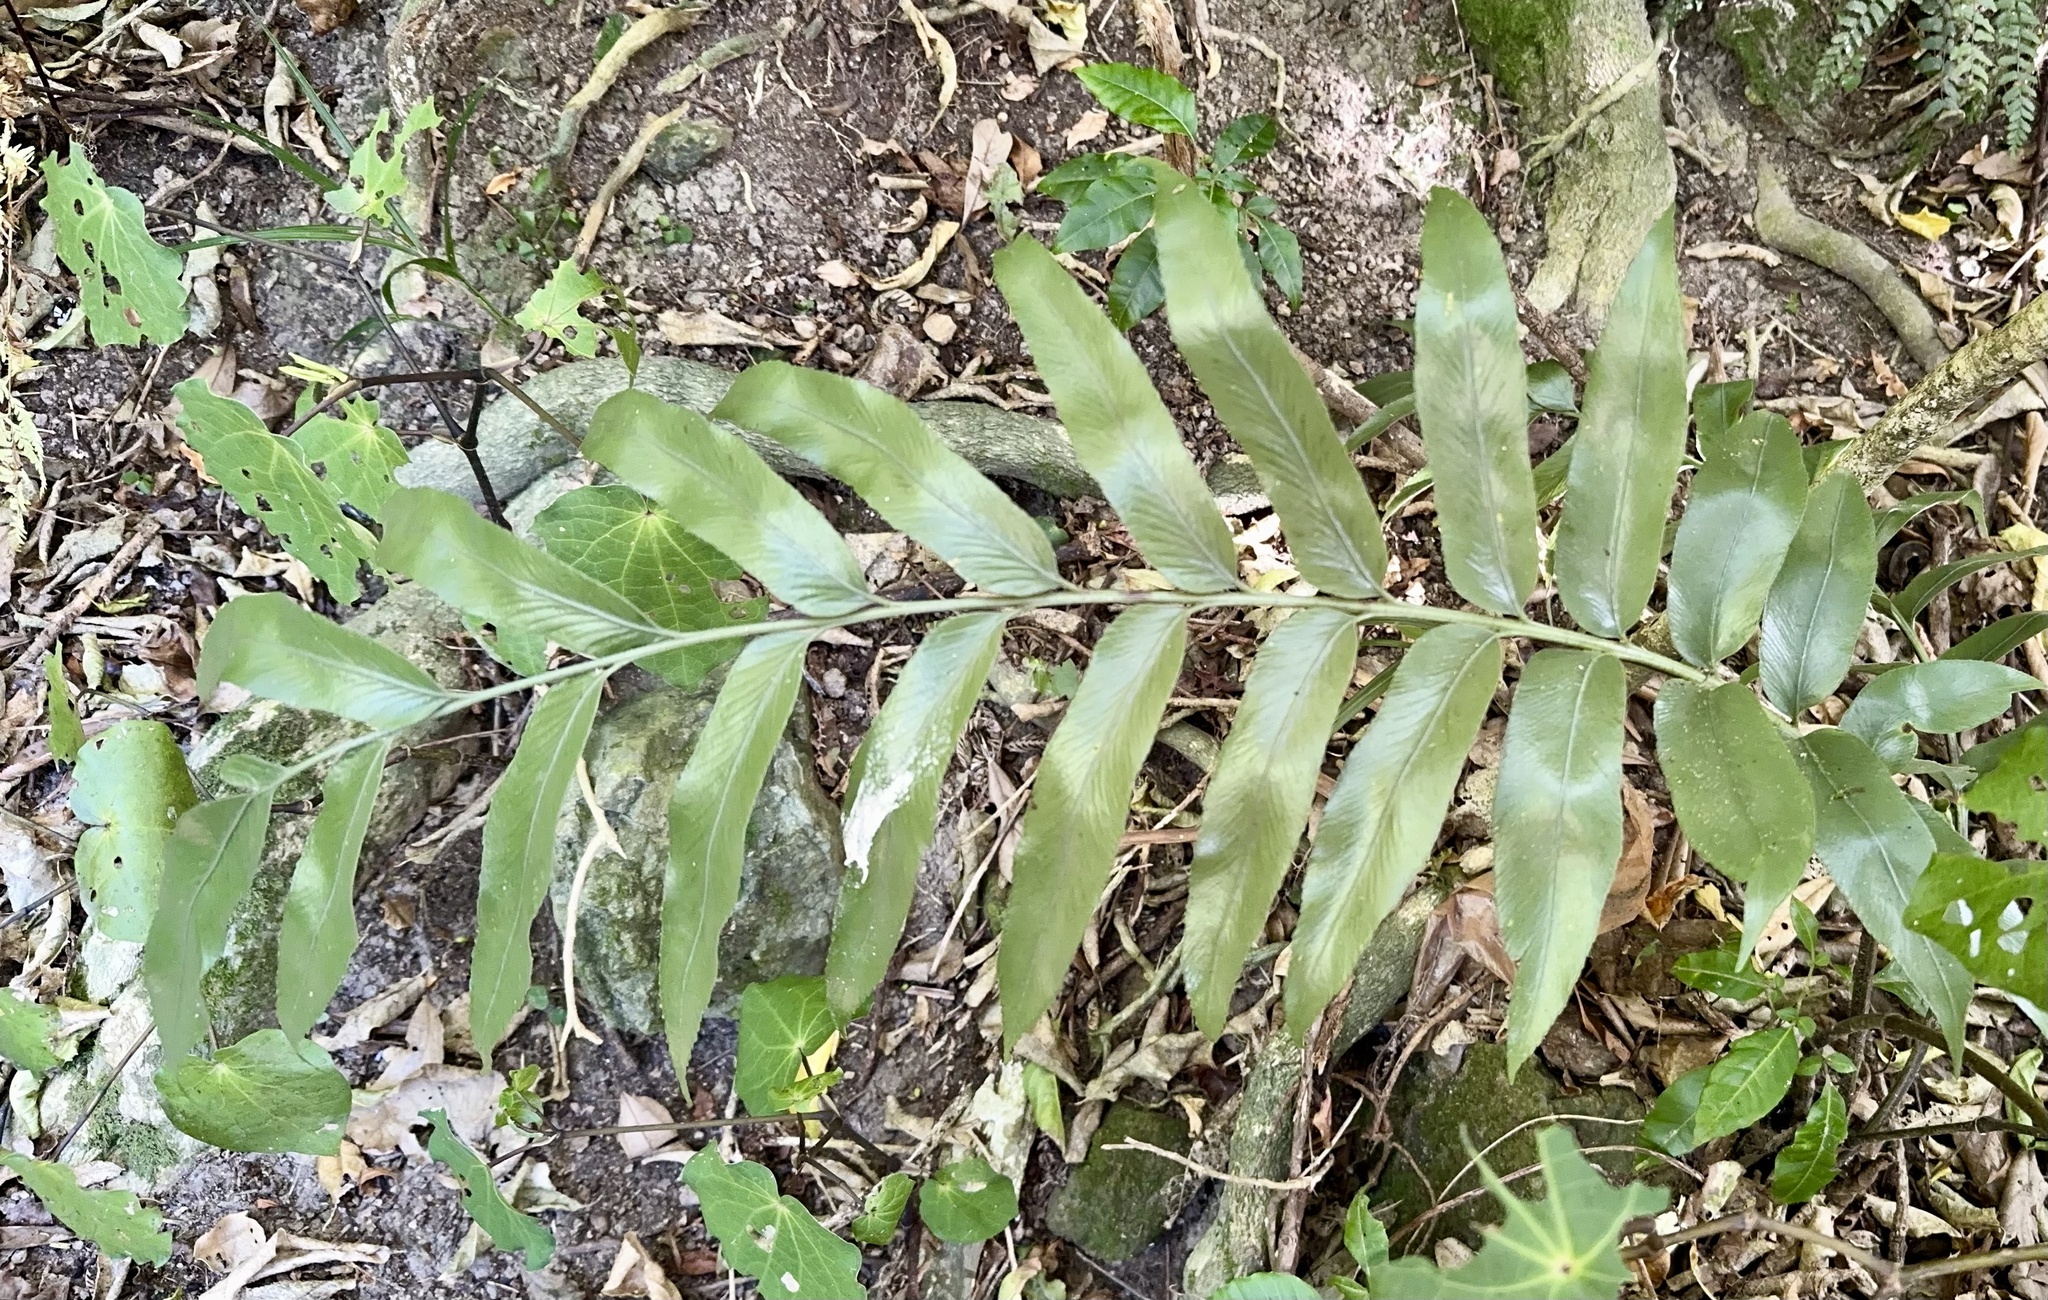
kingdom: Plantae
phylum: Tracheophyta
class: Polypodiopsida
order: Polypodiales
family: Aspleniaceae
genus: Asplenium
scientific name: Asplenium oblongifolium
